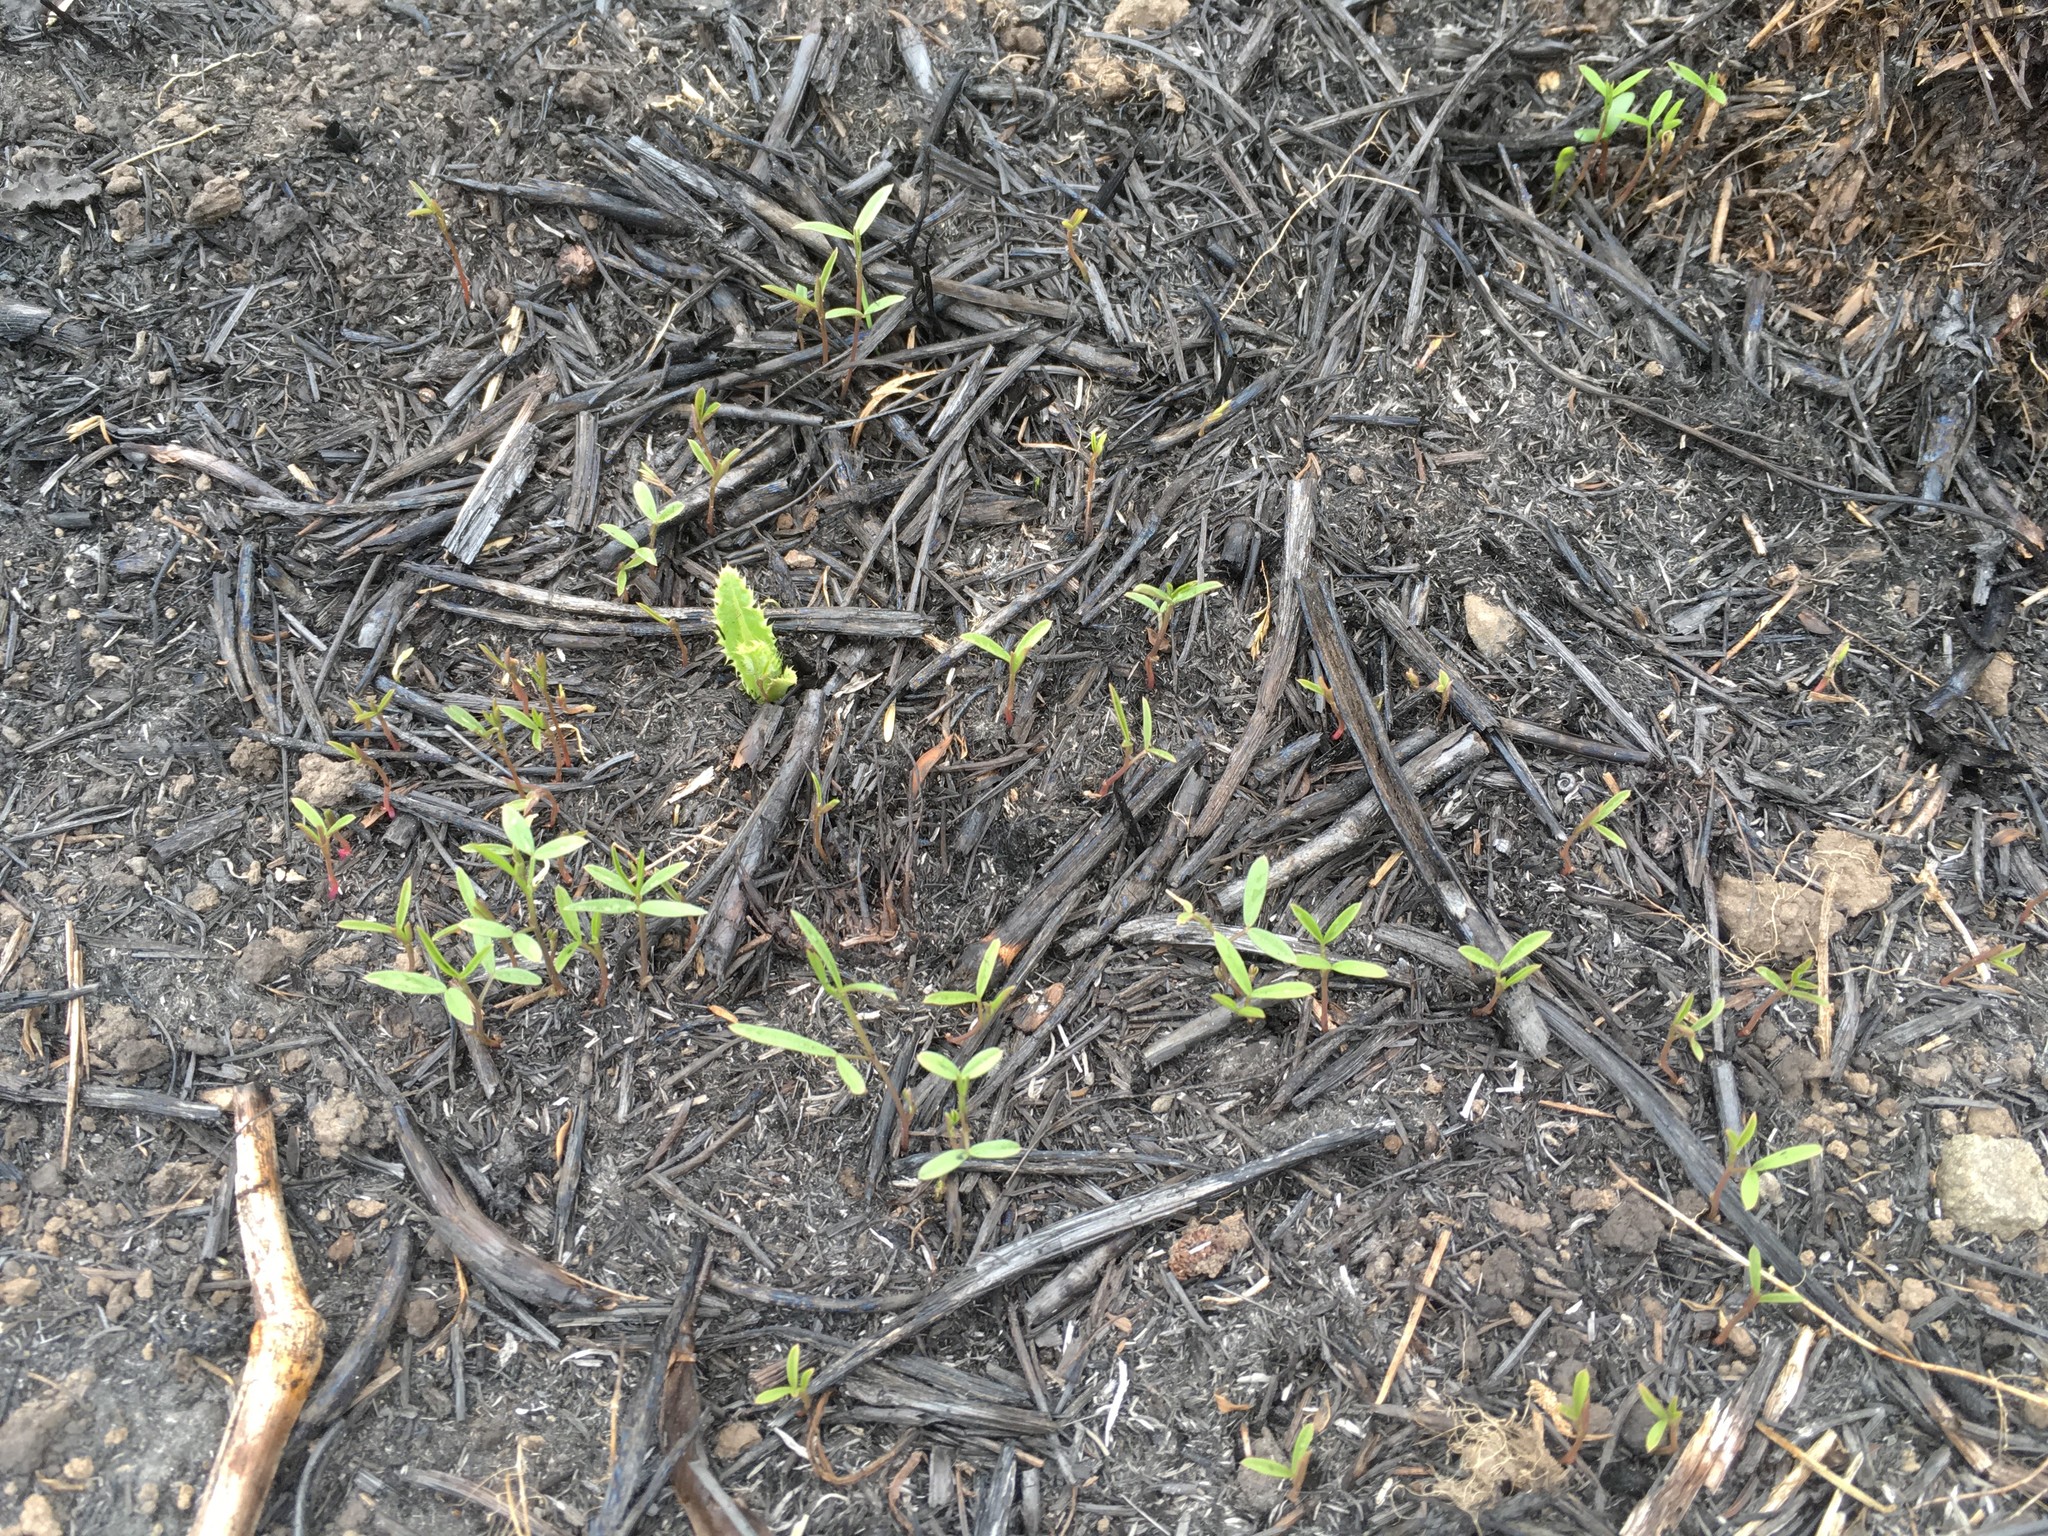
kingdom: Plantae
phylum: Tracheophyta
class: Magnoliopsida
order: Fabales
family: Fabaceae
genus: Vicia
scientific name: Vicia sativa
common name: Garden vetch
